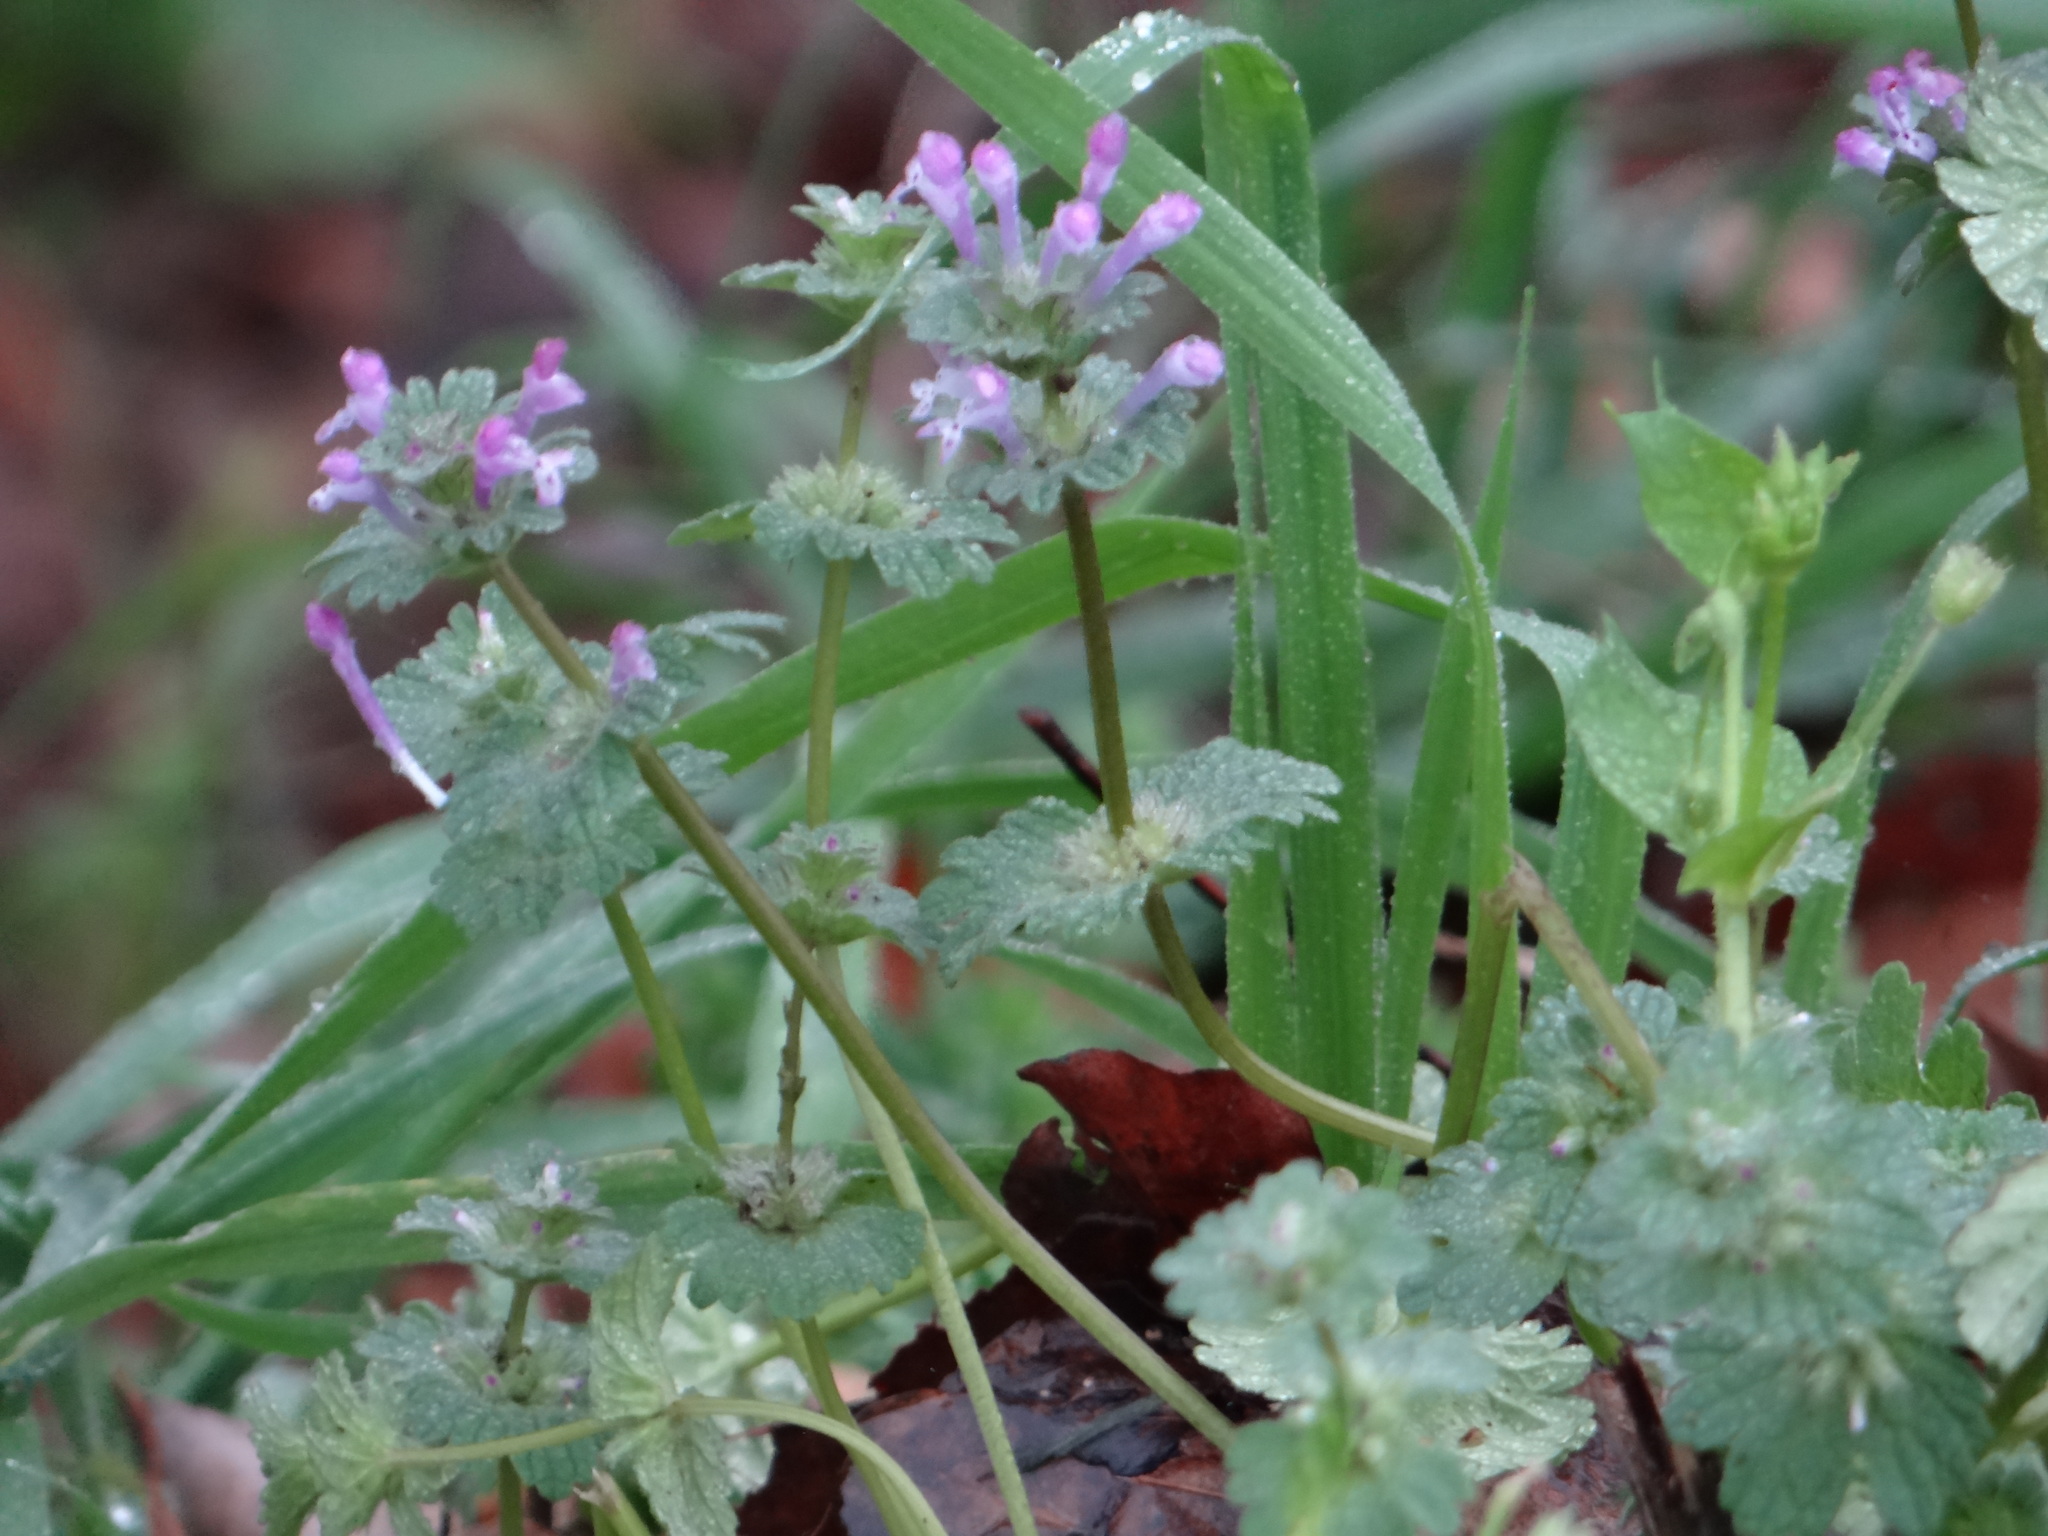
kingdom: Plantae
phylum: Tracheophyta
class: Magnoliopsida
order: Lamiales
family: Lamiaceae
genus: Lamium
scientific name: Lamium amplexicaule
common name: Henbit dead-nettle
